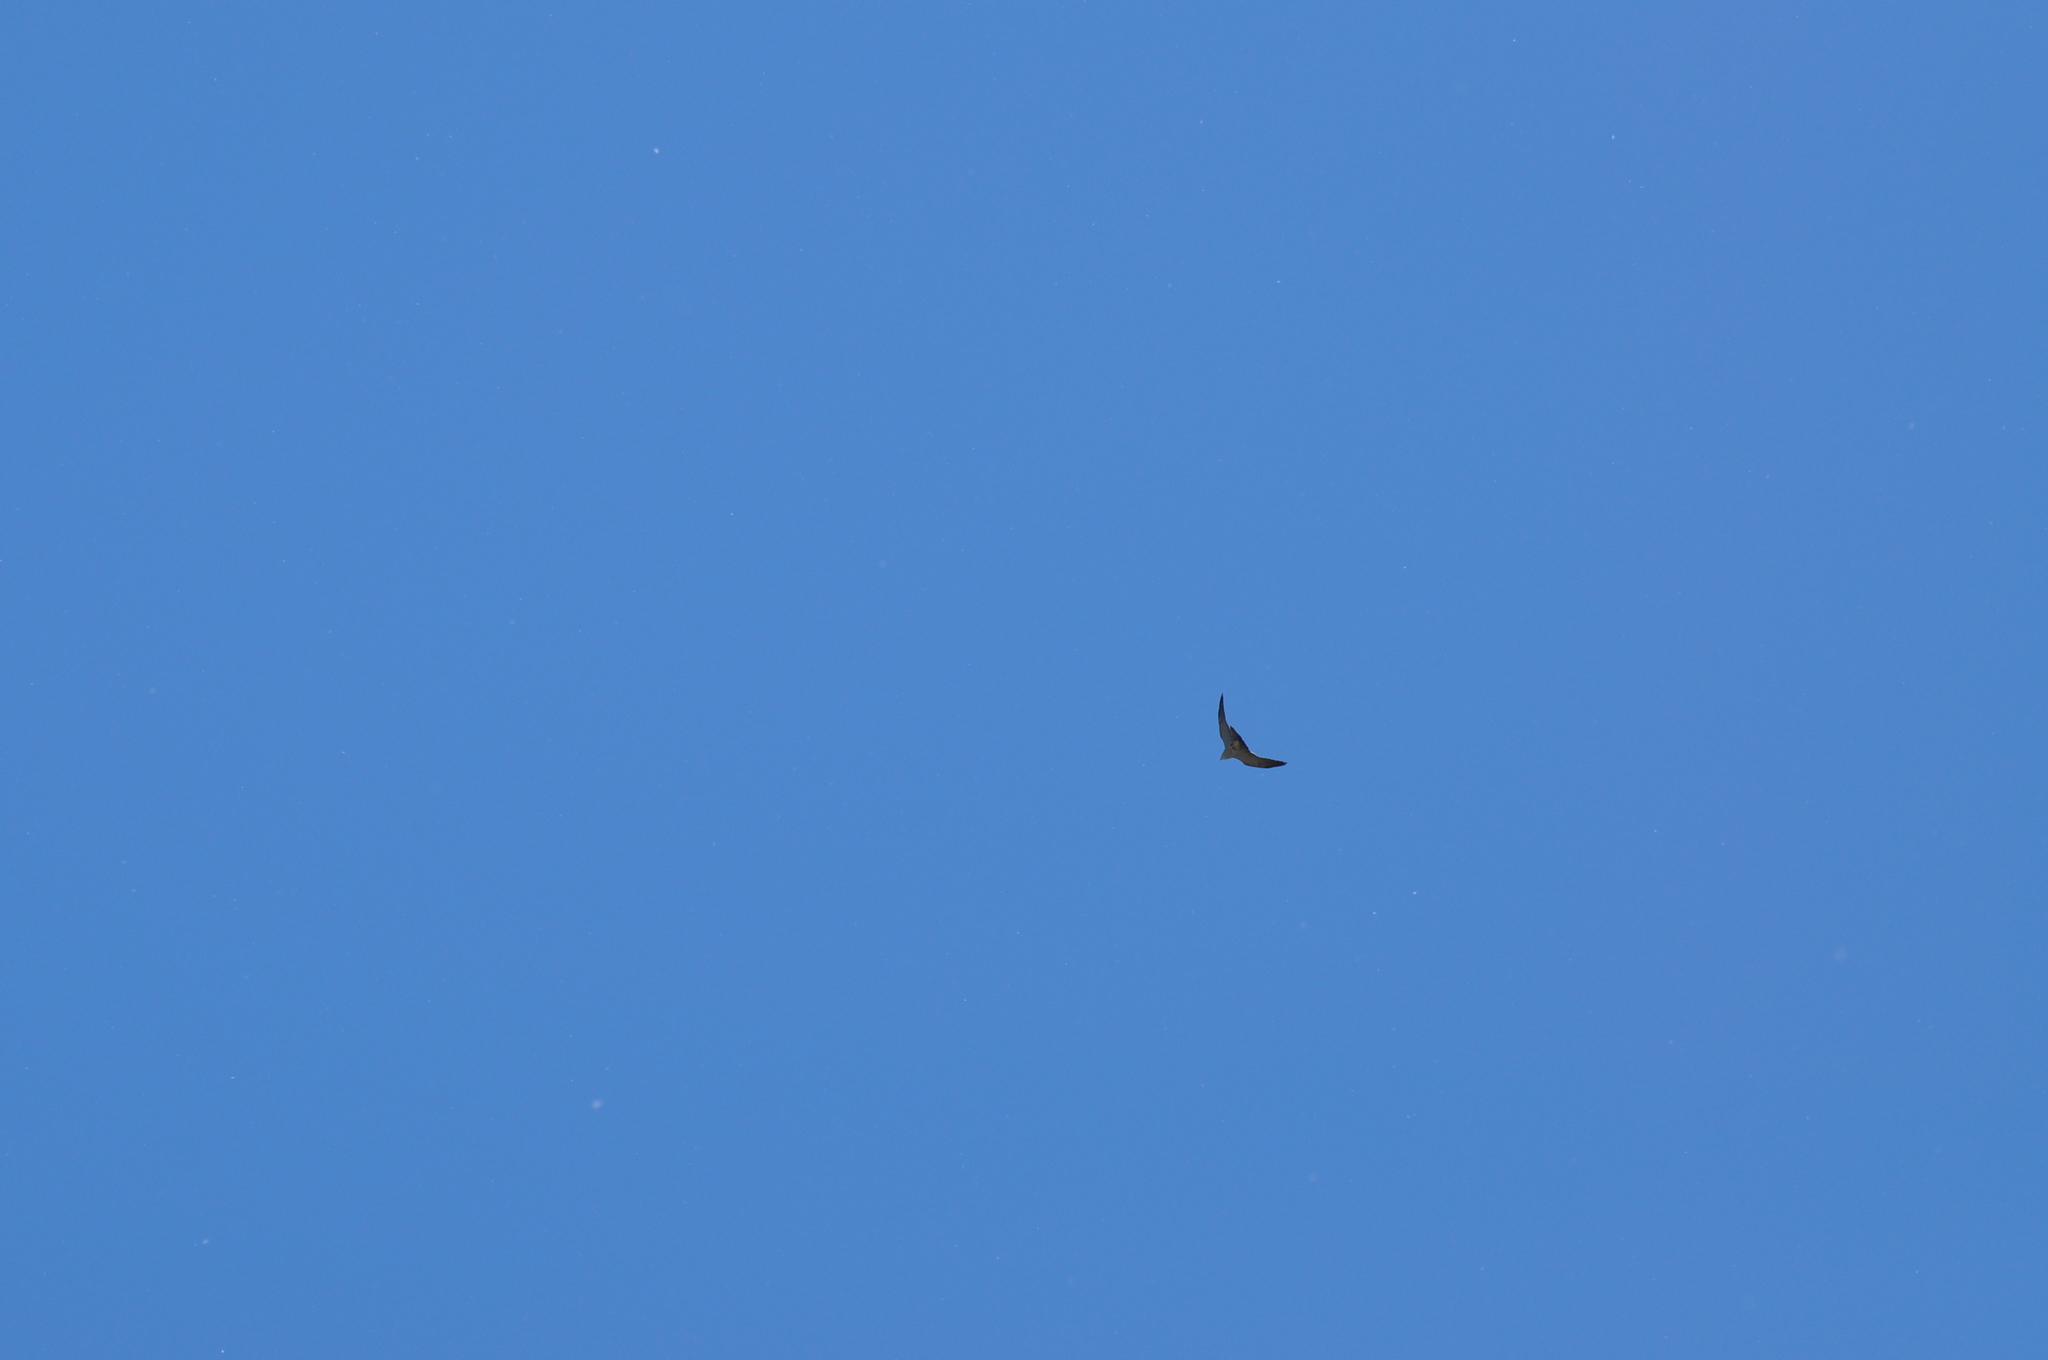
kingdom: Animalia
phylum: Chordata
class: Aves
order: Accipitriformes
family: Accipitridae
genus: Ictinia
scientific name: Ictinia mississippiensis
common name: Mississippi kite
